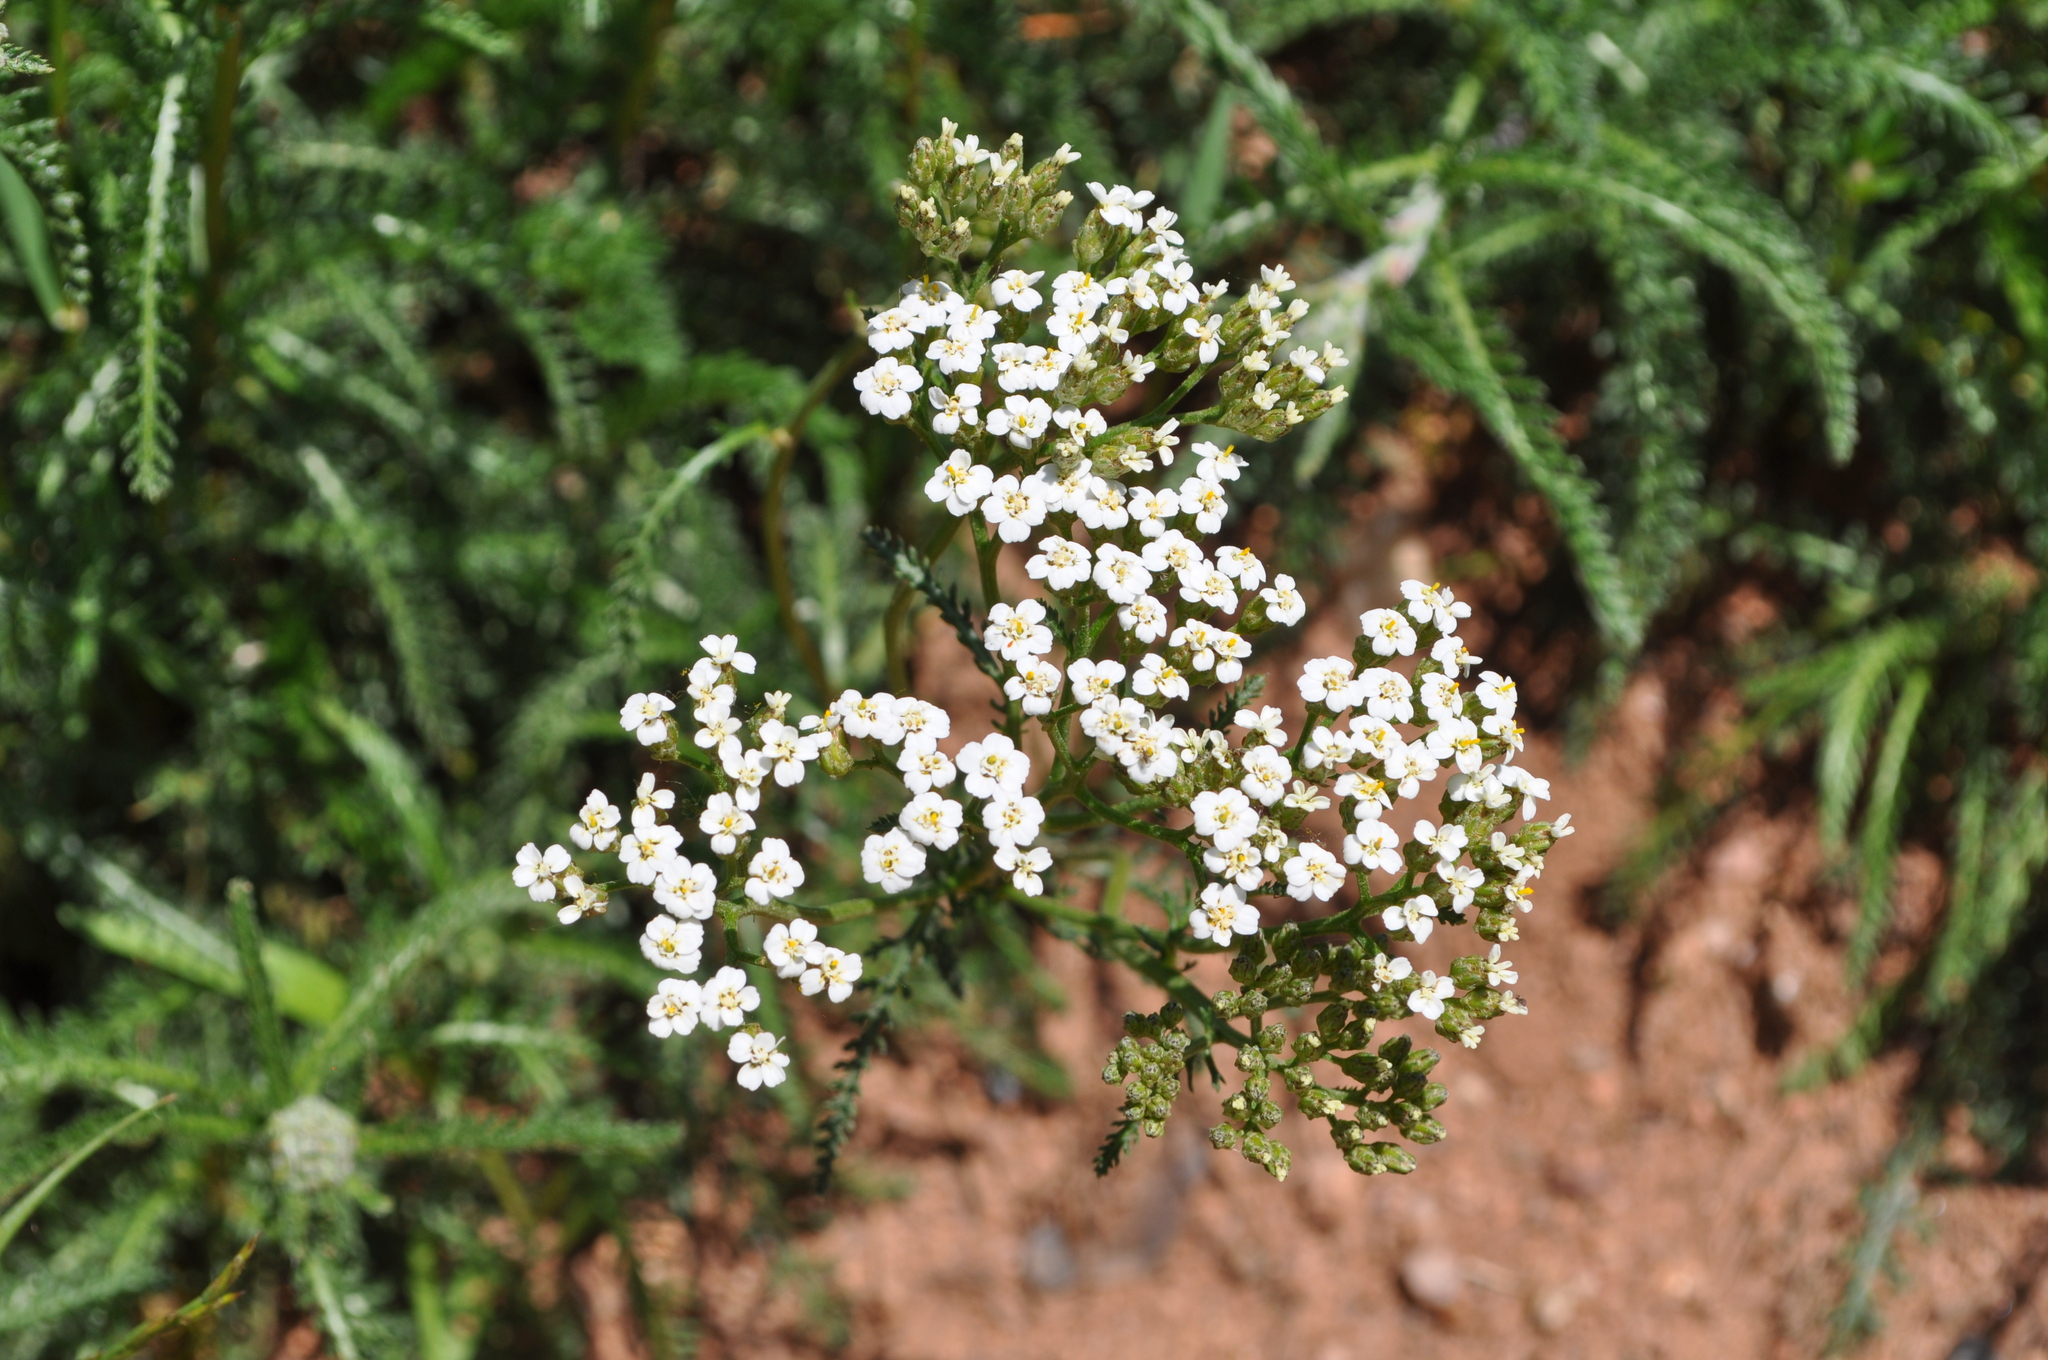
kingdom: Plantae
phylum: Tracheophyta
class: Magnoliopsida
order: Asterales
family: Asteraceae
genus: Achillea
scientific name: Achillea millefolium
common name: Yarrow
